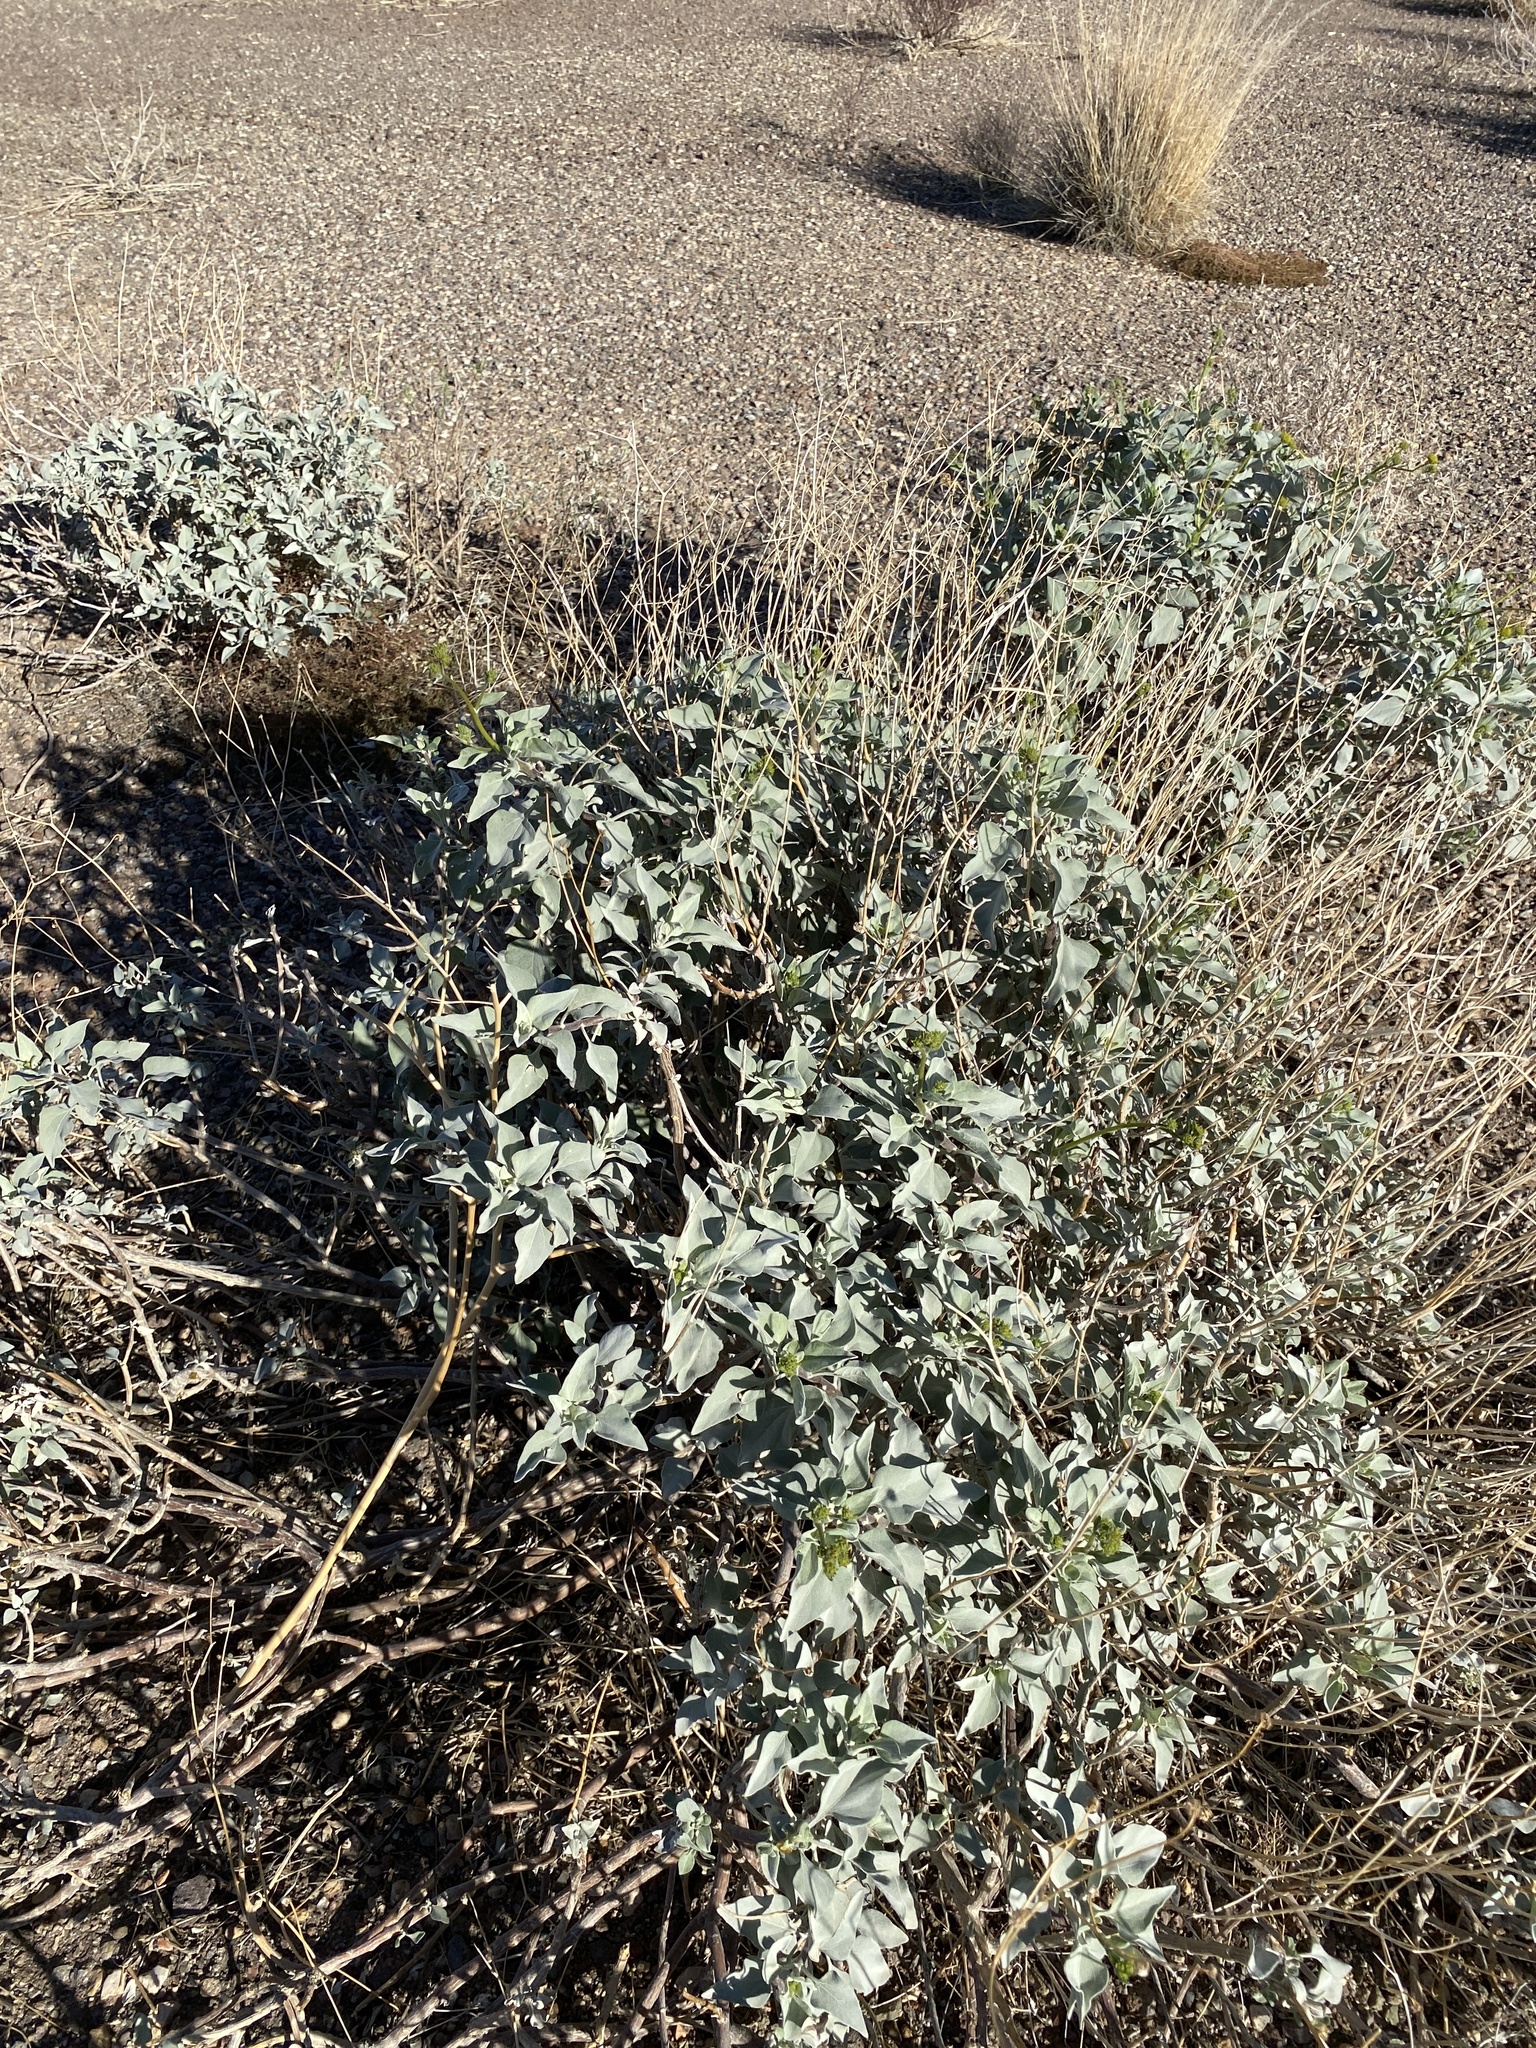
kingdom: Plantae
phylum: Tracheophyta
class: Magnoliopsida
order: Asterales
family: Asteraceae
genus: Encelia
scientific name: Encelia farinosa
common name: Brittlebush
